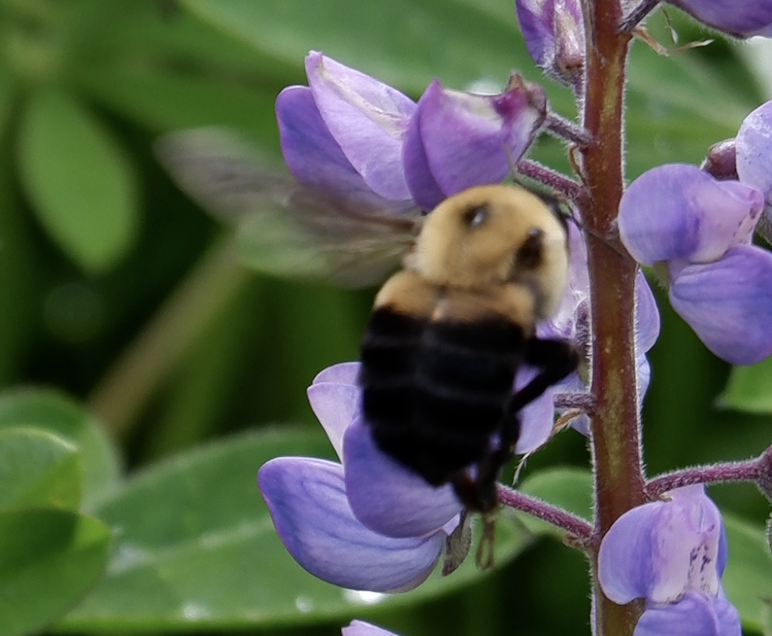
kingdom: Animalia
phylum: Arthropoda
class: Insecta
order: Hymenoptera
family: Apidae
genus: Bombus
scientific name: Bombus griseocollis
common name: Brown-belted bumble bee
